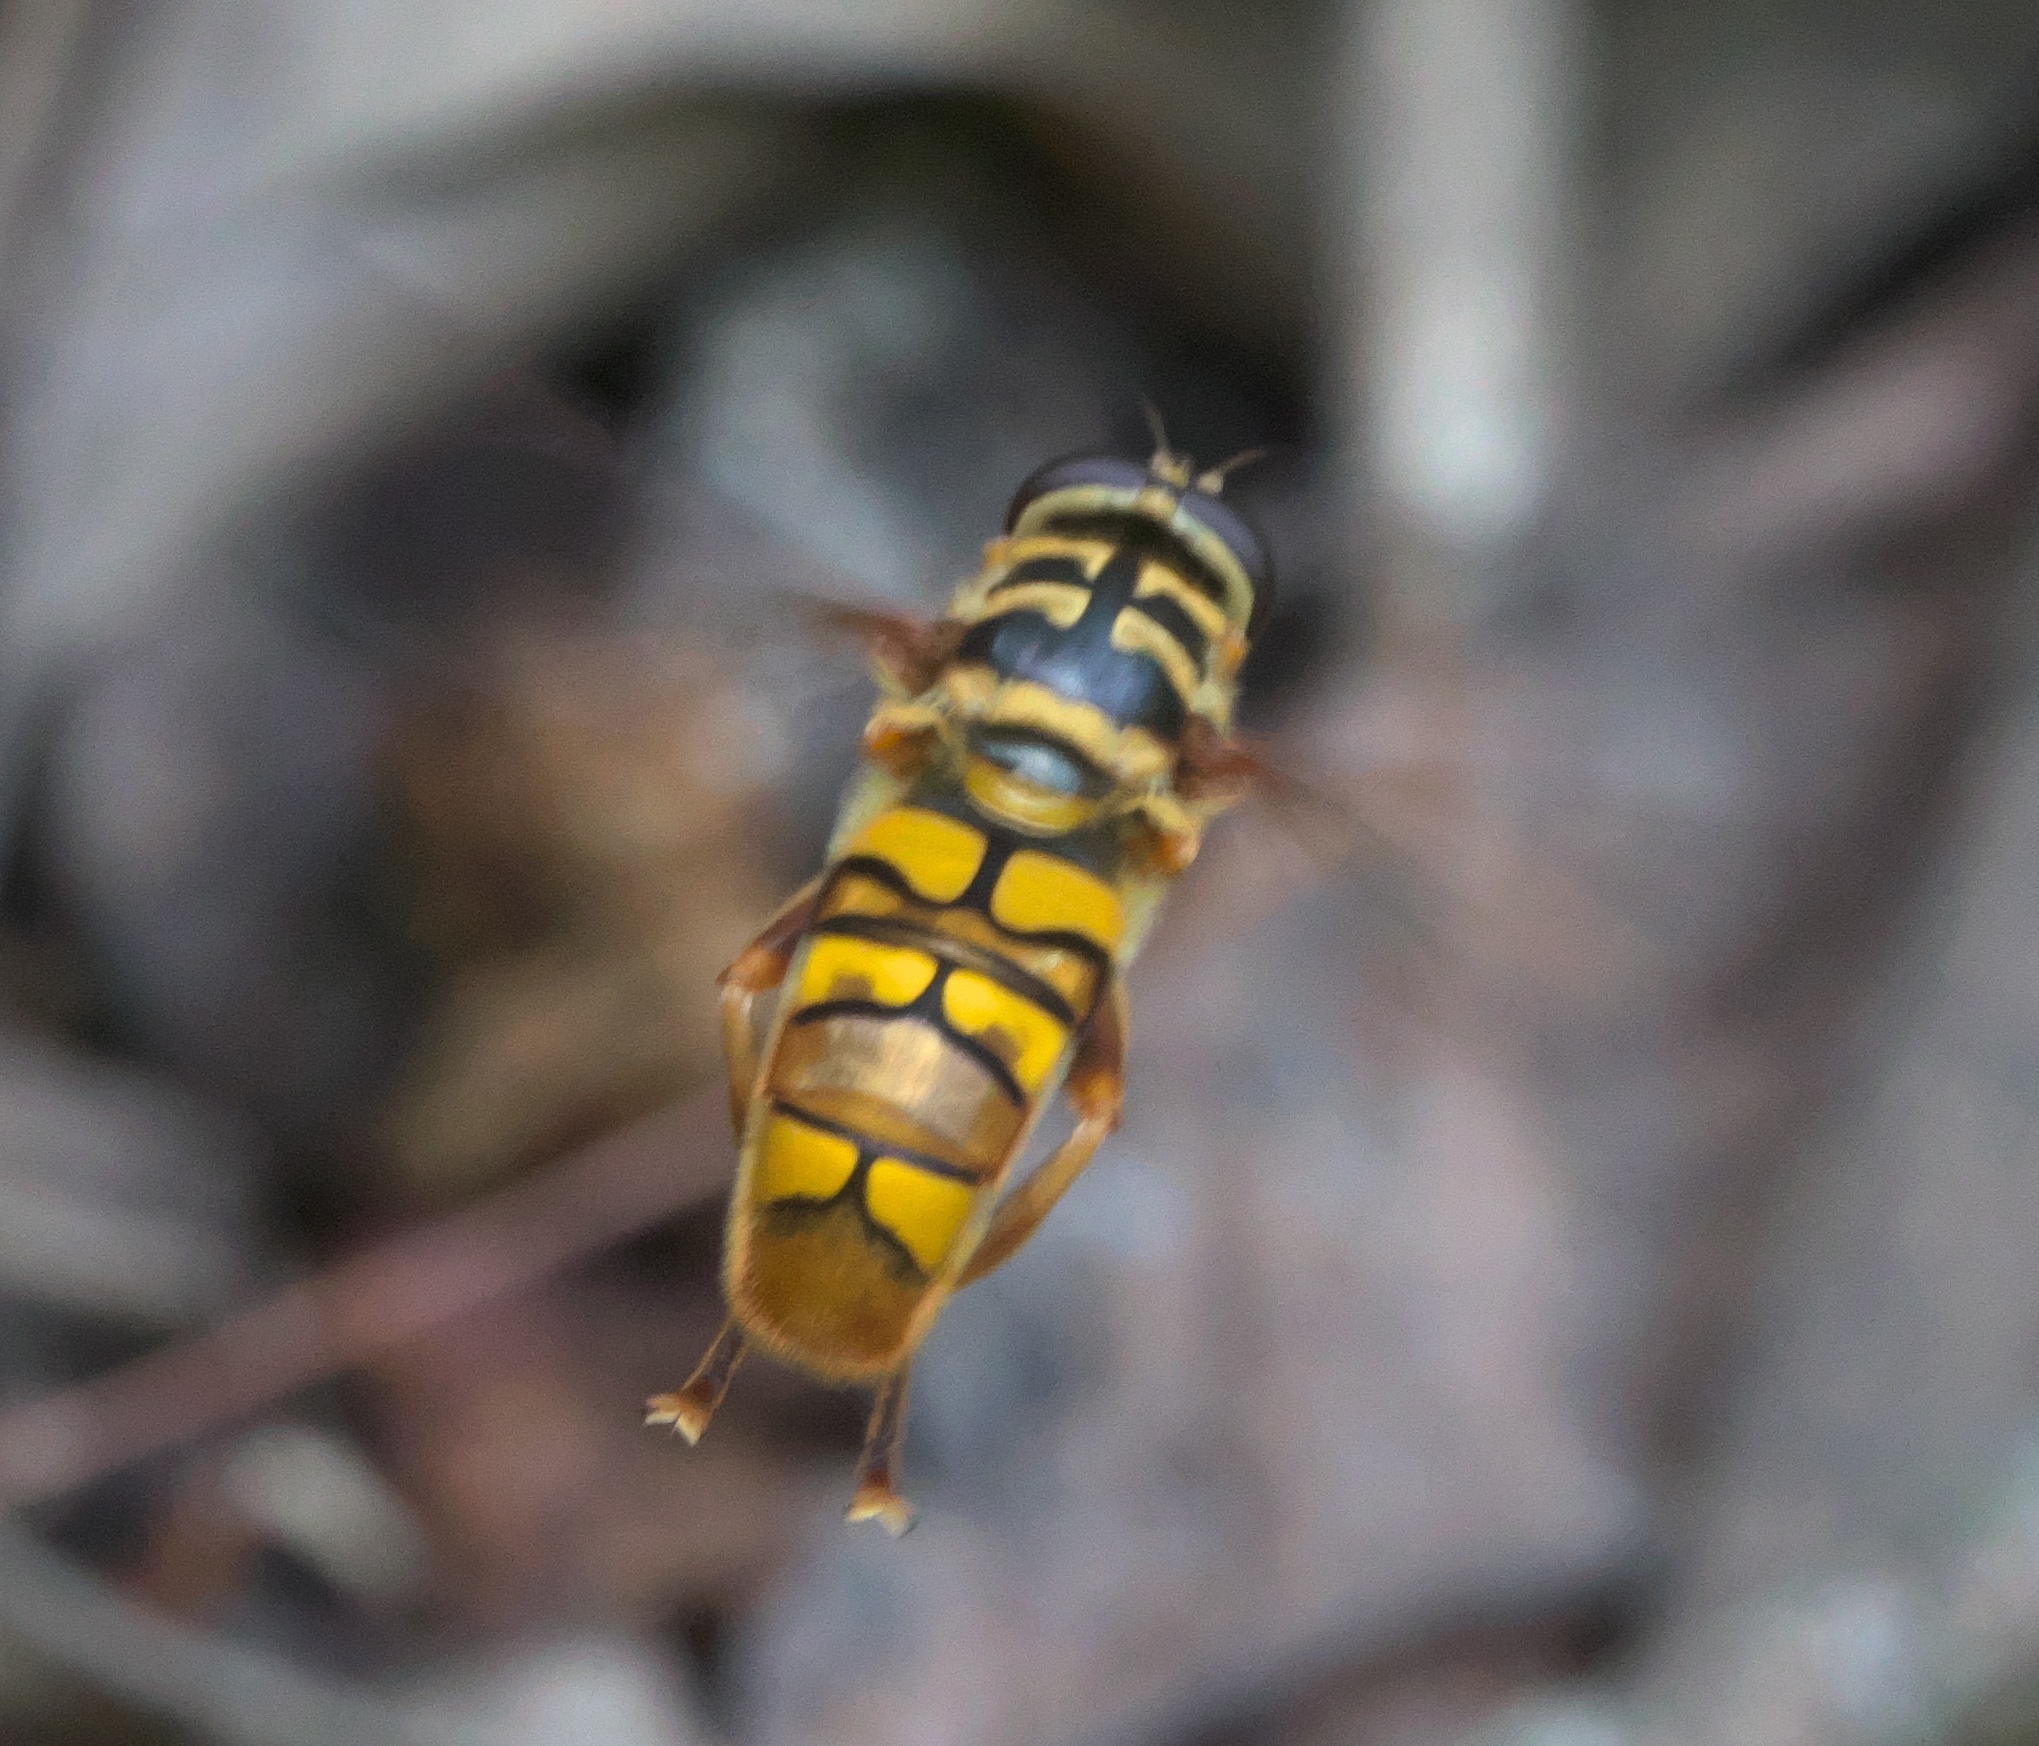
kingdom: Animalia
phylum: Arthropoda
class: Insecta
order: Diptera
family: Syrphidae
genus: Milesia
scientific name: Milesia virginiensis
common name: Virginia giant
